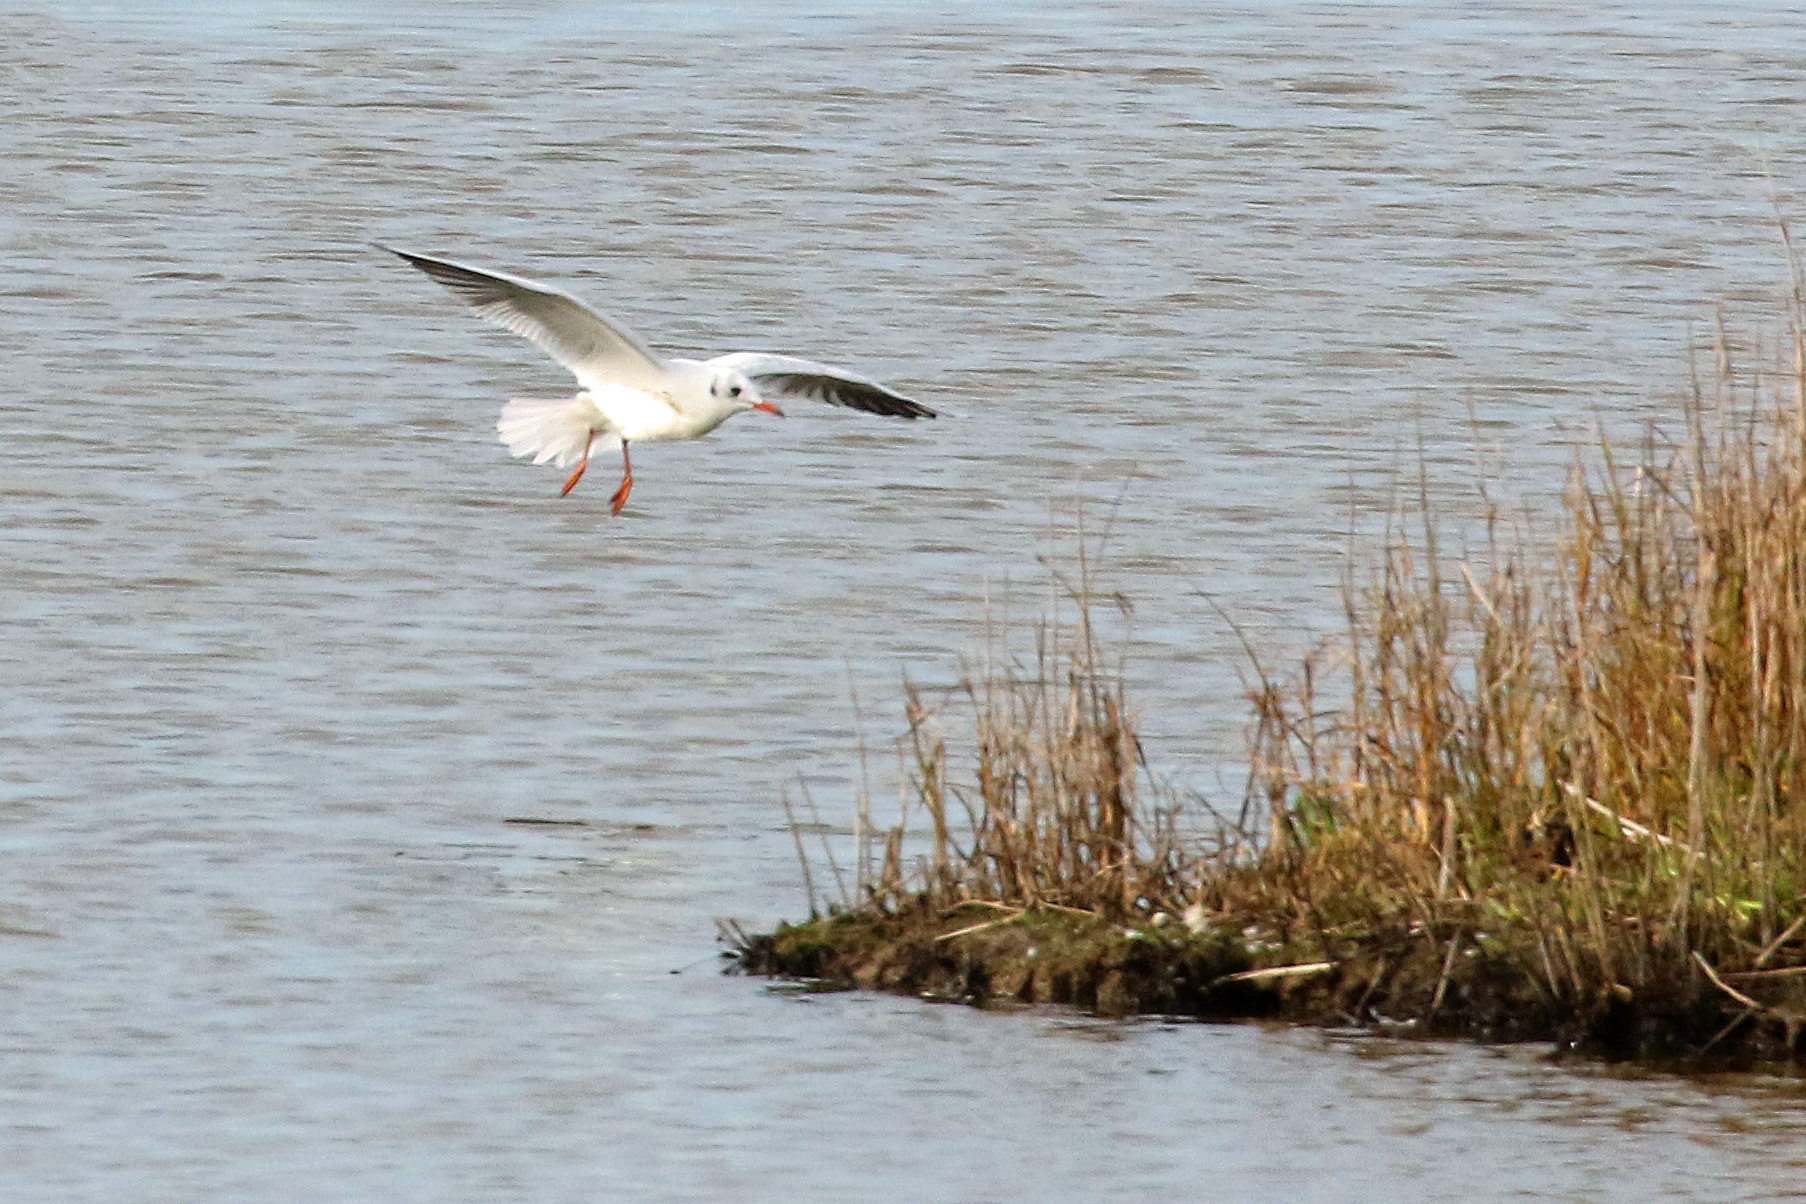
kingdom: Animalia
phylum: Chordata
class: Aves
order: Charadriiformes
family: Laridae
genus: Chroicocephalus
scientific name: Chroicocephalus ridibundus
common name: Black-headed gull
